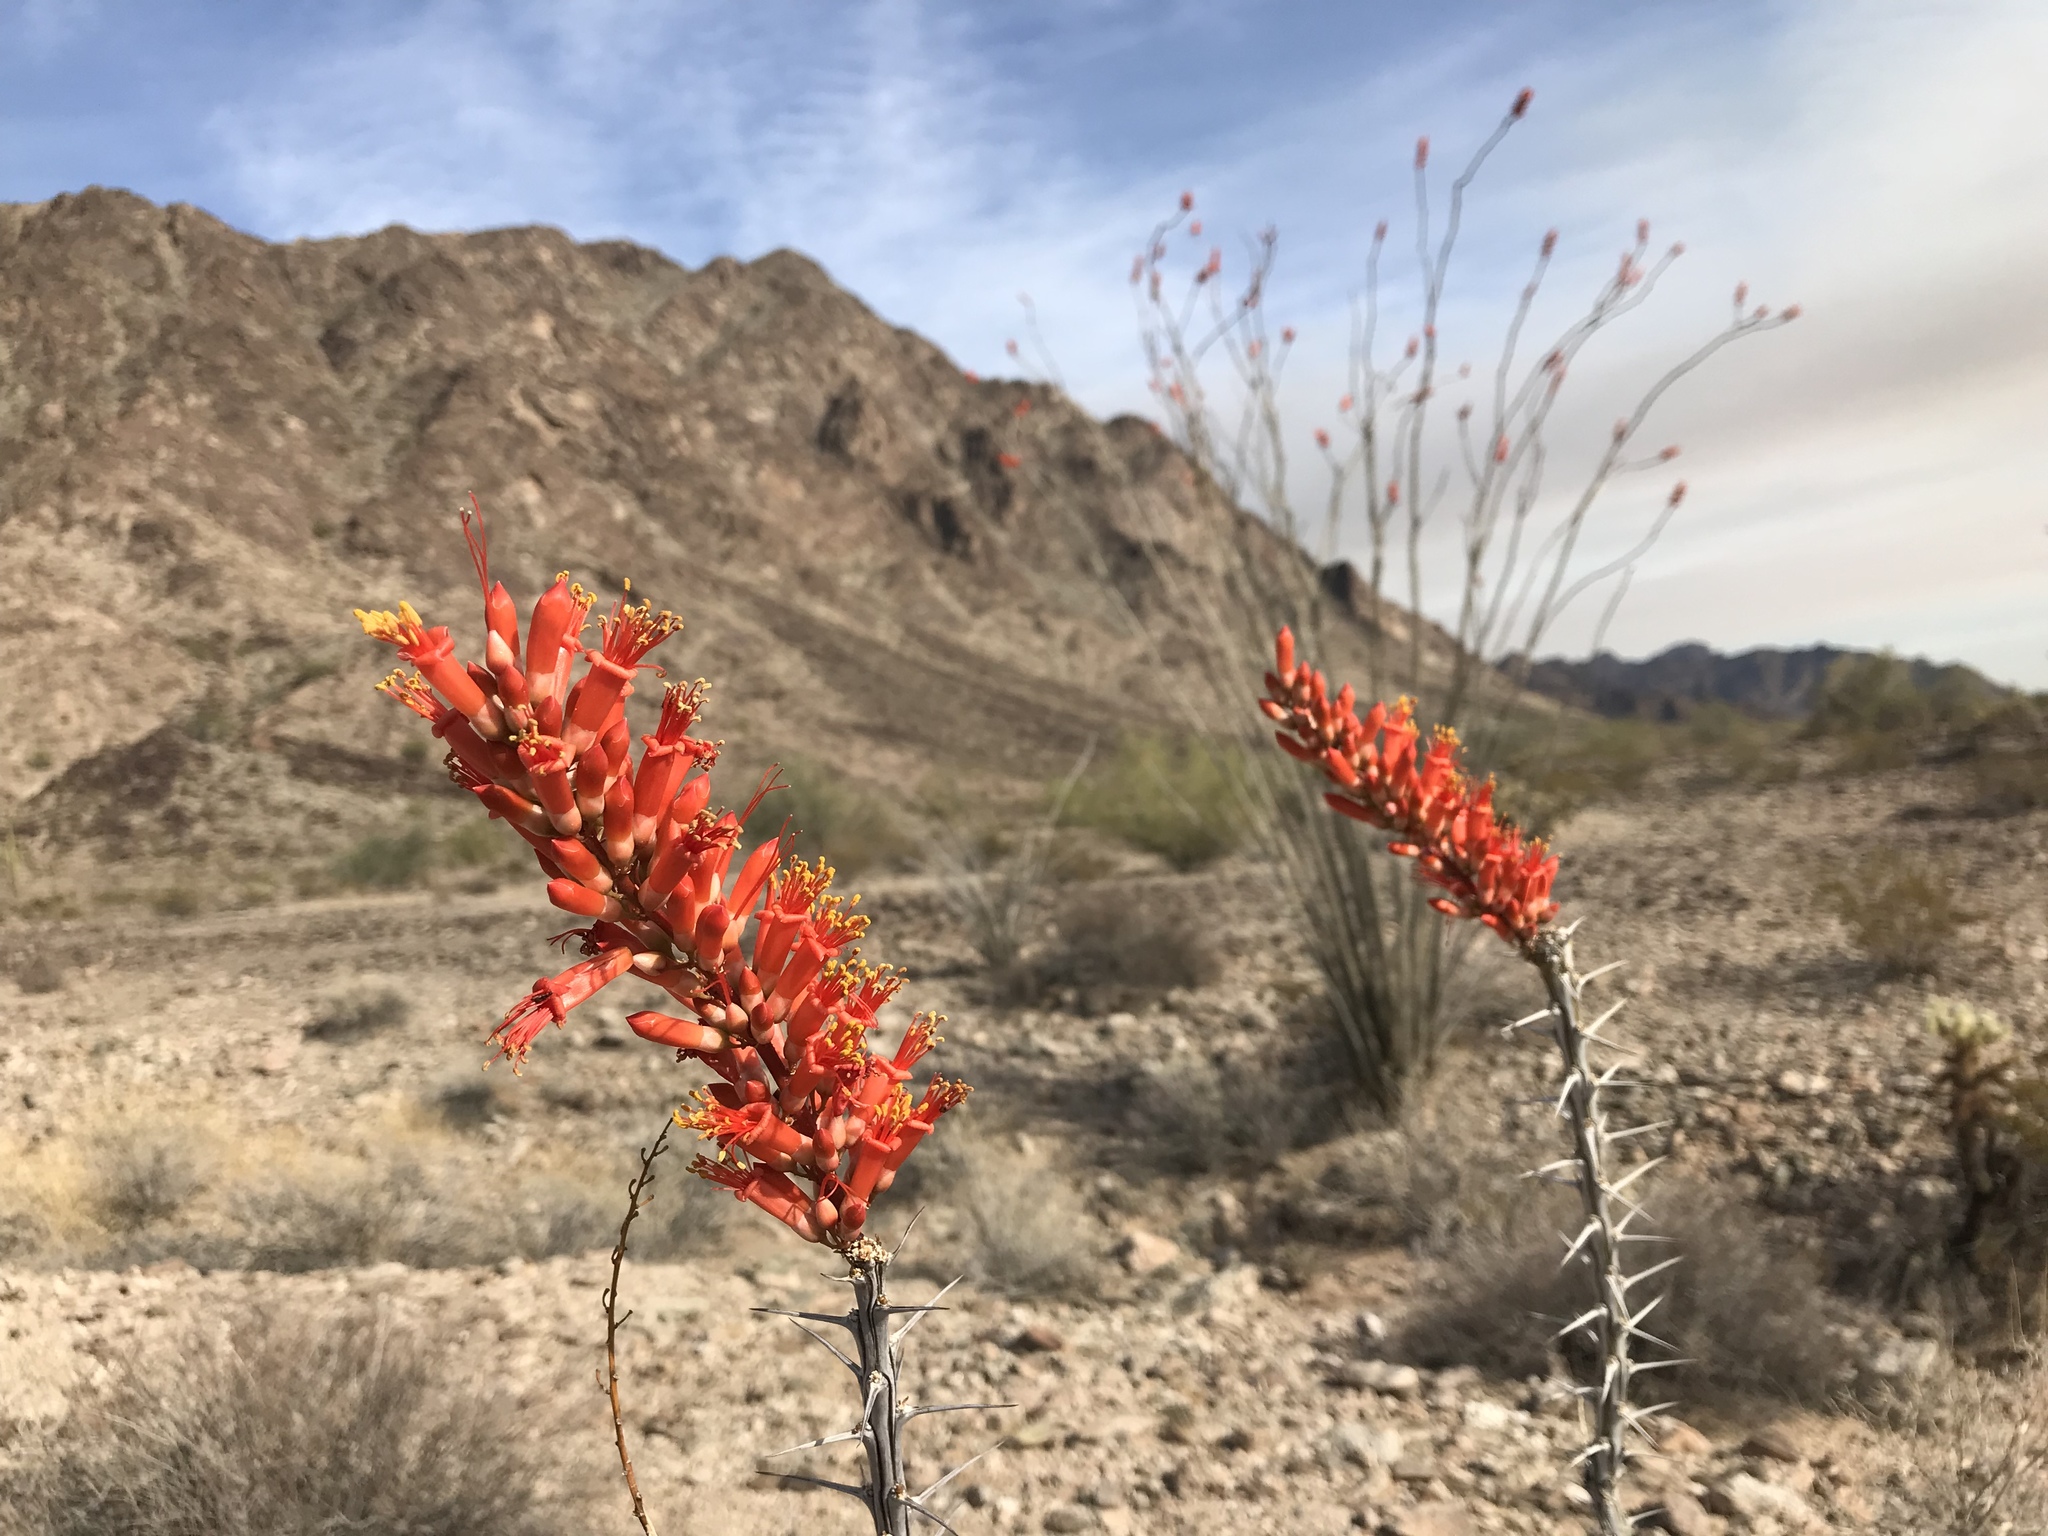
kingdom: Plantae
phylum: Tracheophyta
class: Magnoliopsida
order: Ericales
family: Fouquieriaceae
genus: Fouquieria
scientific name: Fouquieria splendens
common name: Vine-cactus
